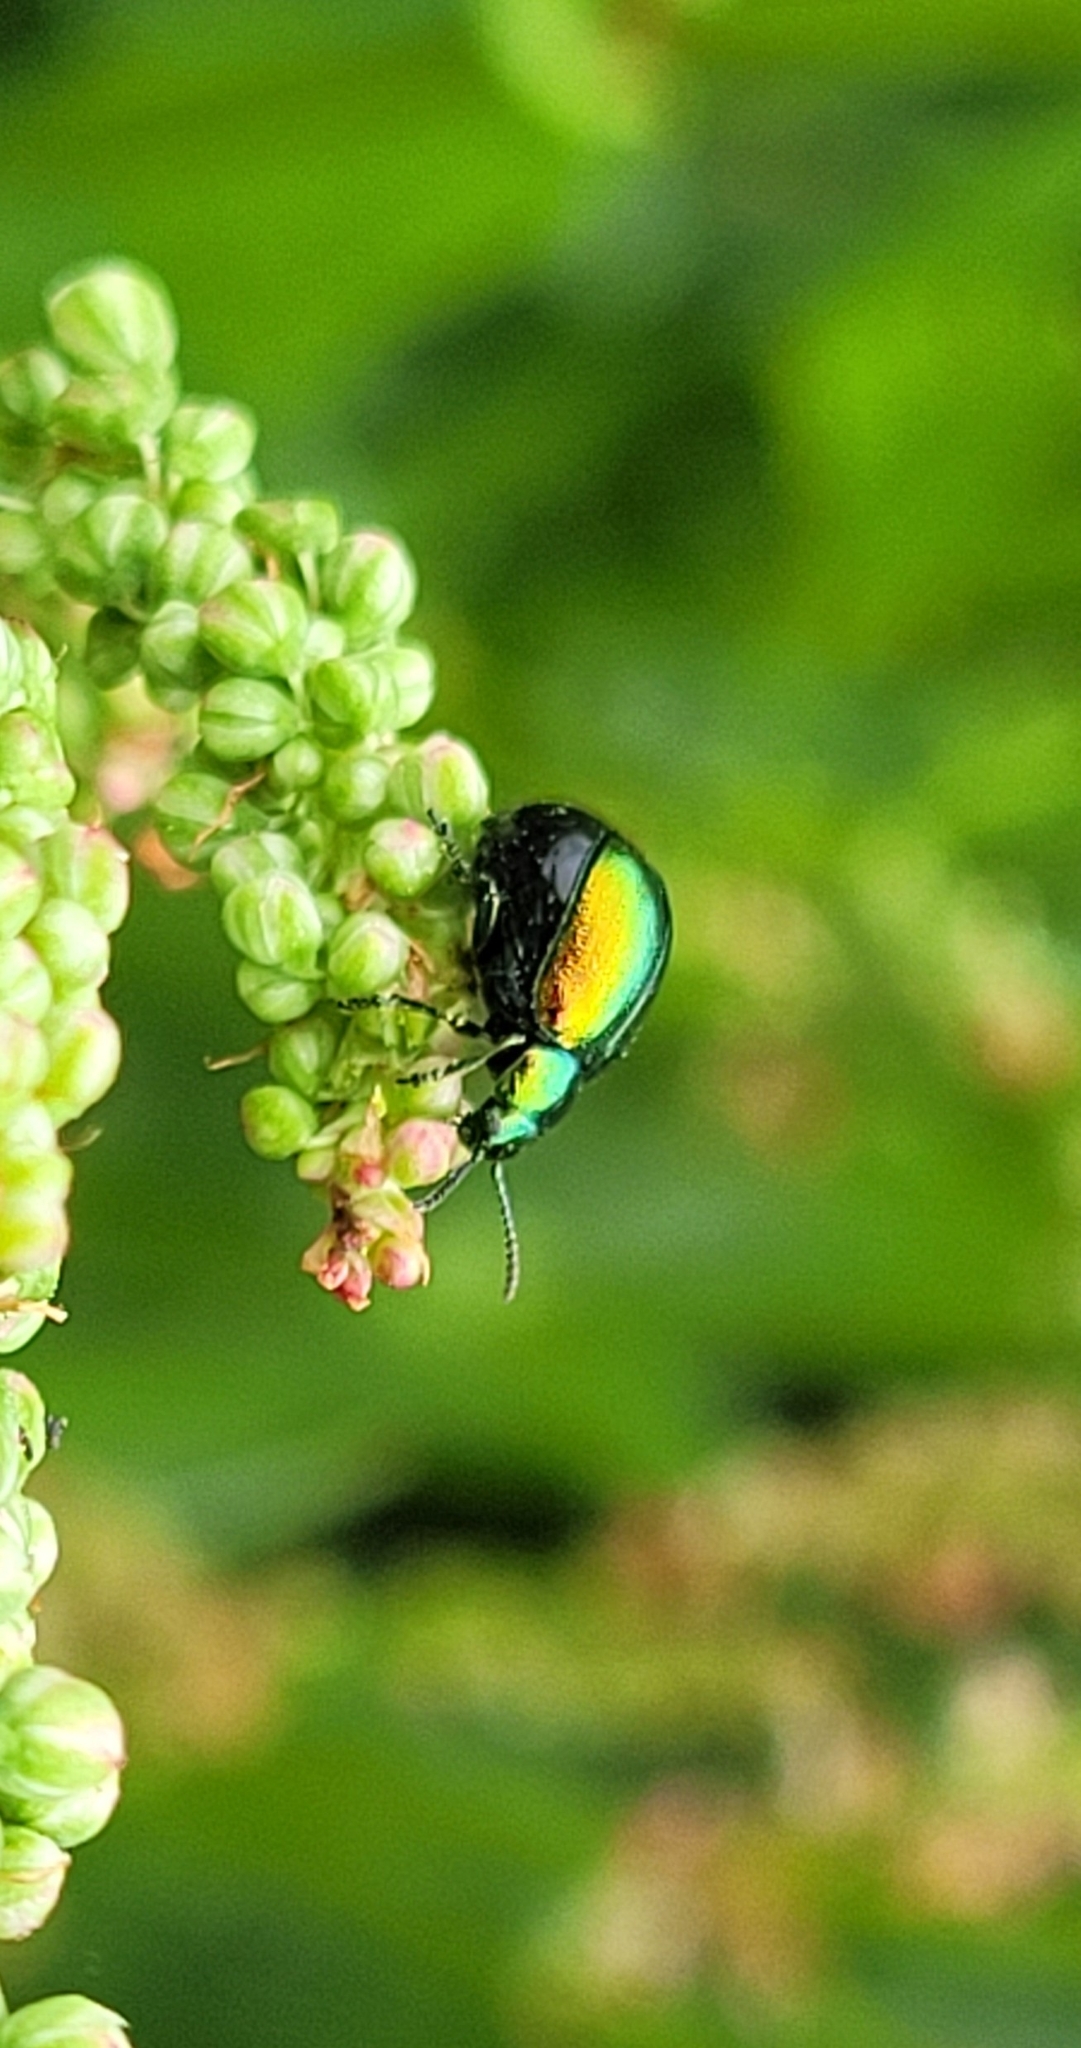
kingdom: Animalia
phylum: Arthropoda
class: Insecta
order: Coleoptera
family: Chrysomelidae
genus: Gastrophysa
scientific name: Gastrophysa viridula
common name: Green dock beetle
